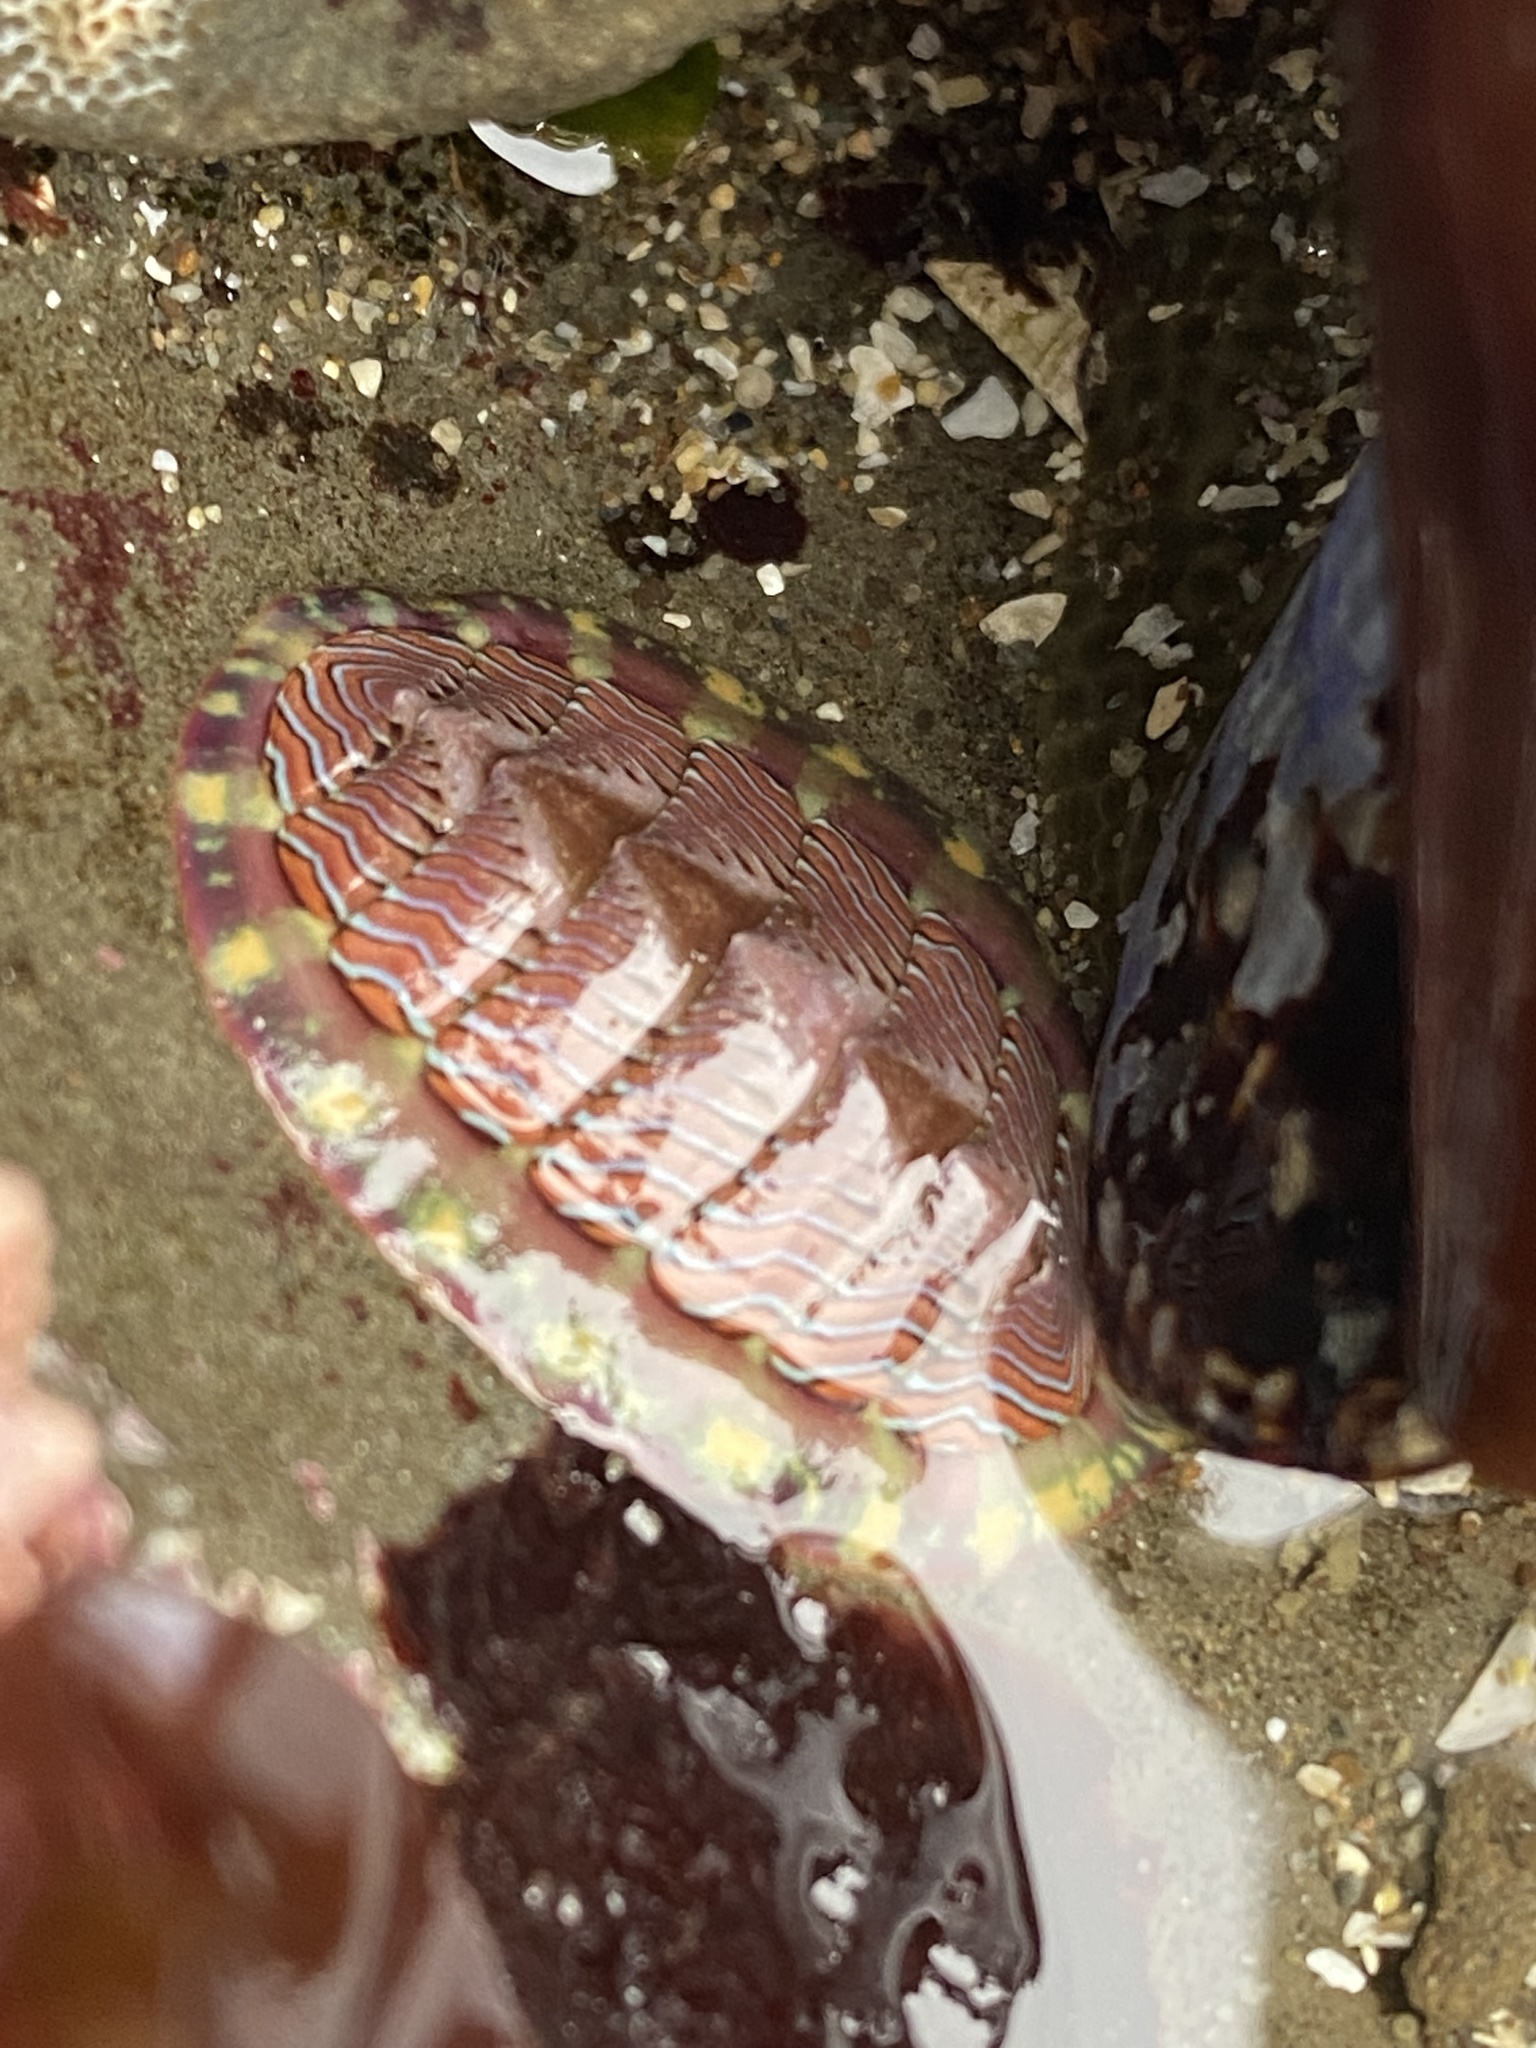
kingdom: Animalia
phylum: Mollusca
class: Polyplacophora
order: Chitonida
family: Tonicellidae
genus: Tonicella
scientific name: Tonicella lineata
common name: Lined chiton
